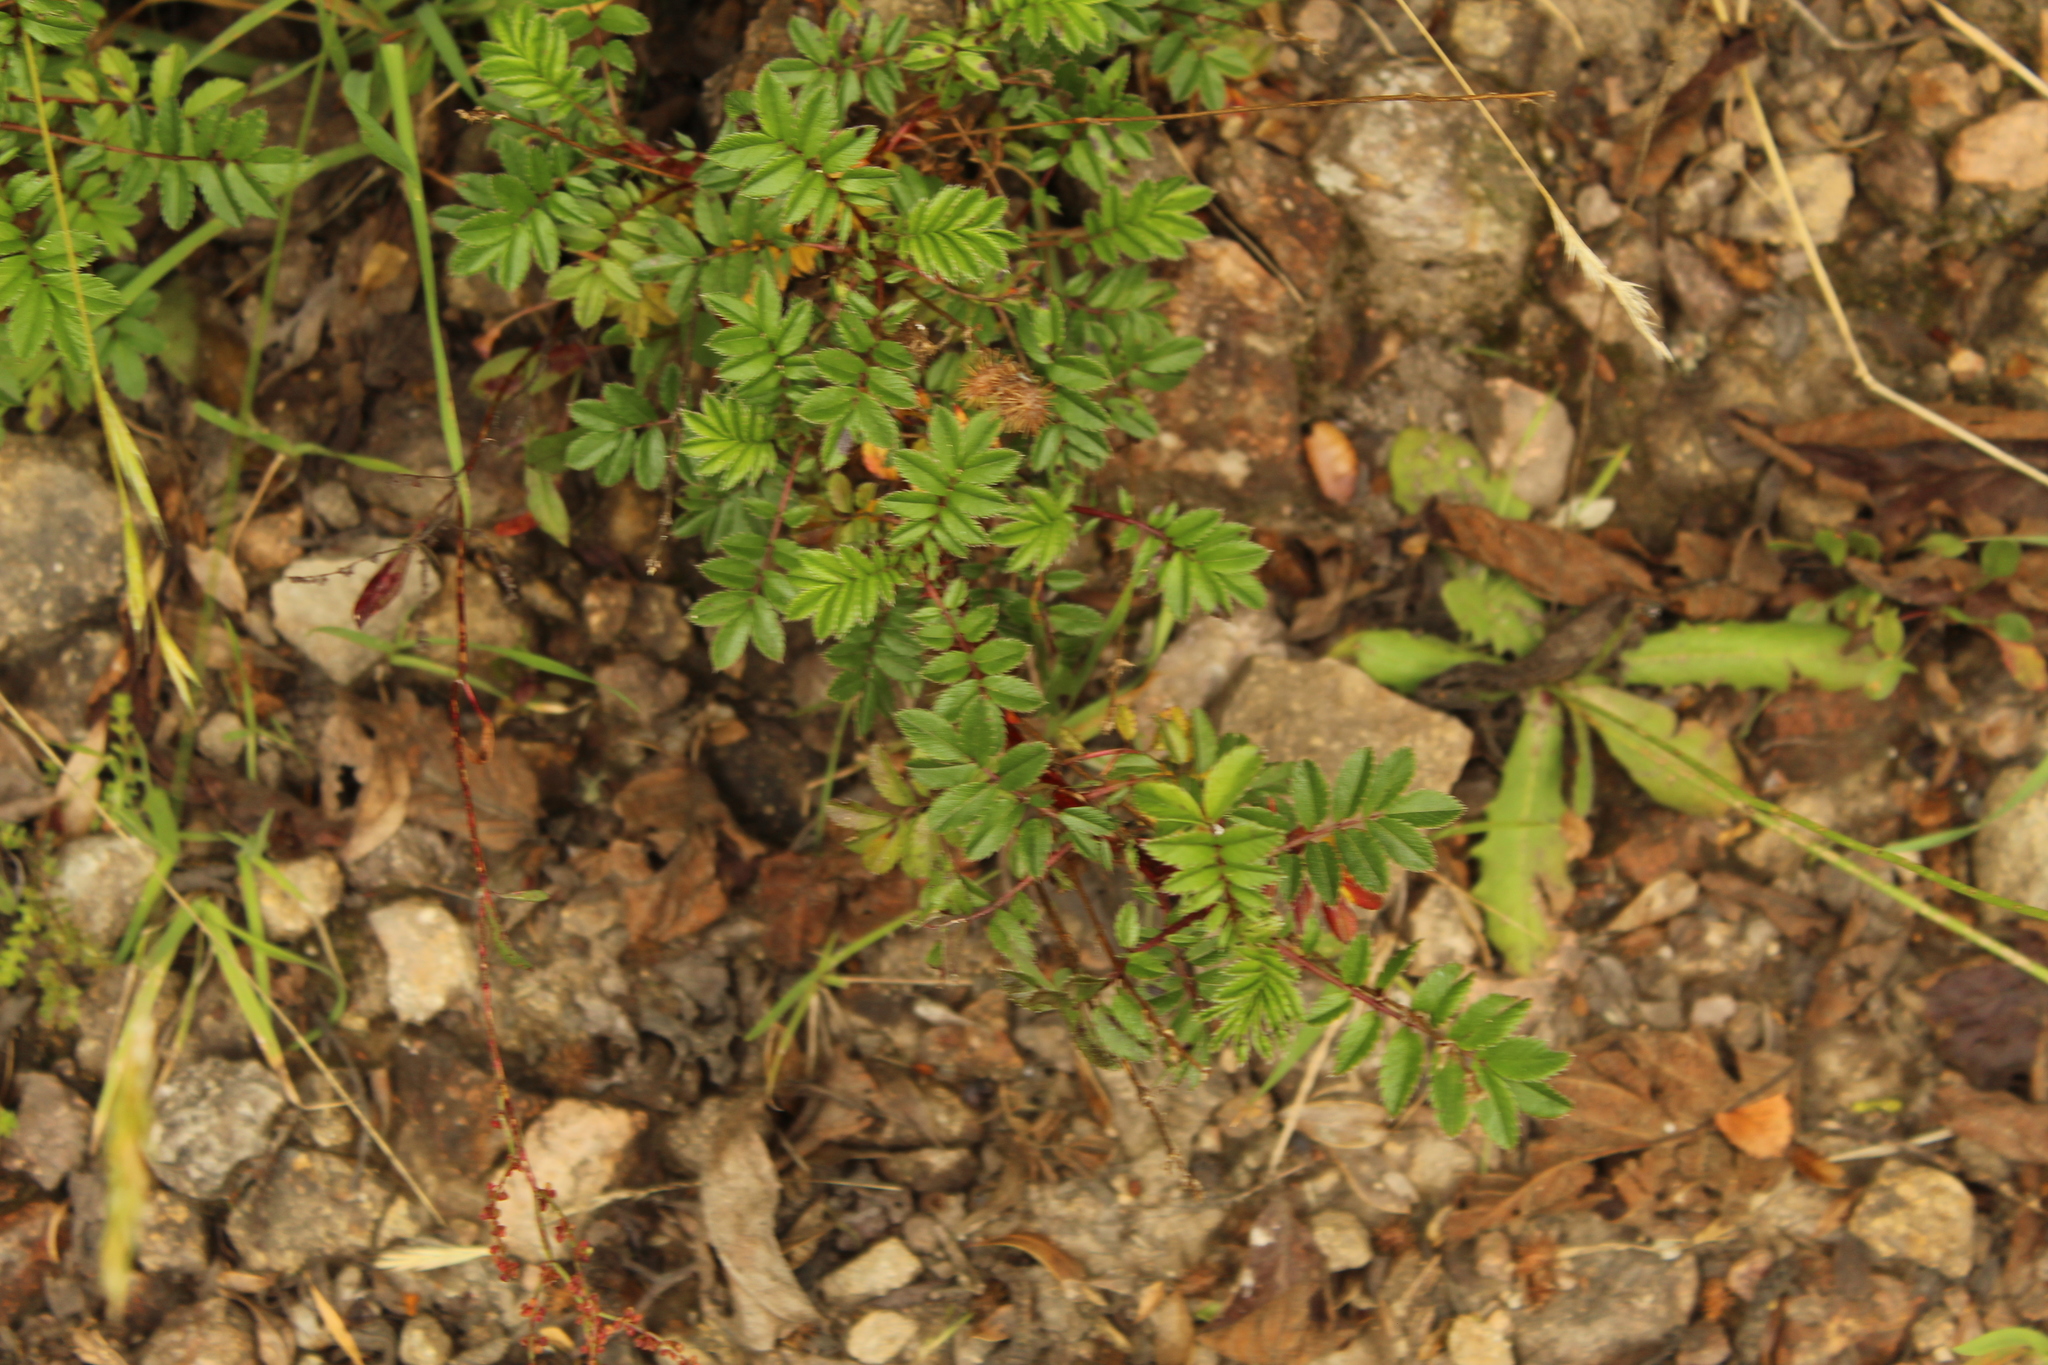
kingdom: Plantae
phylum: Tracheophyta
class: Magnoliopsida
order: Rosales
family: Rosaceae
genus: Acaena
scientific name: Acaena elongata
